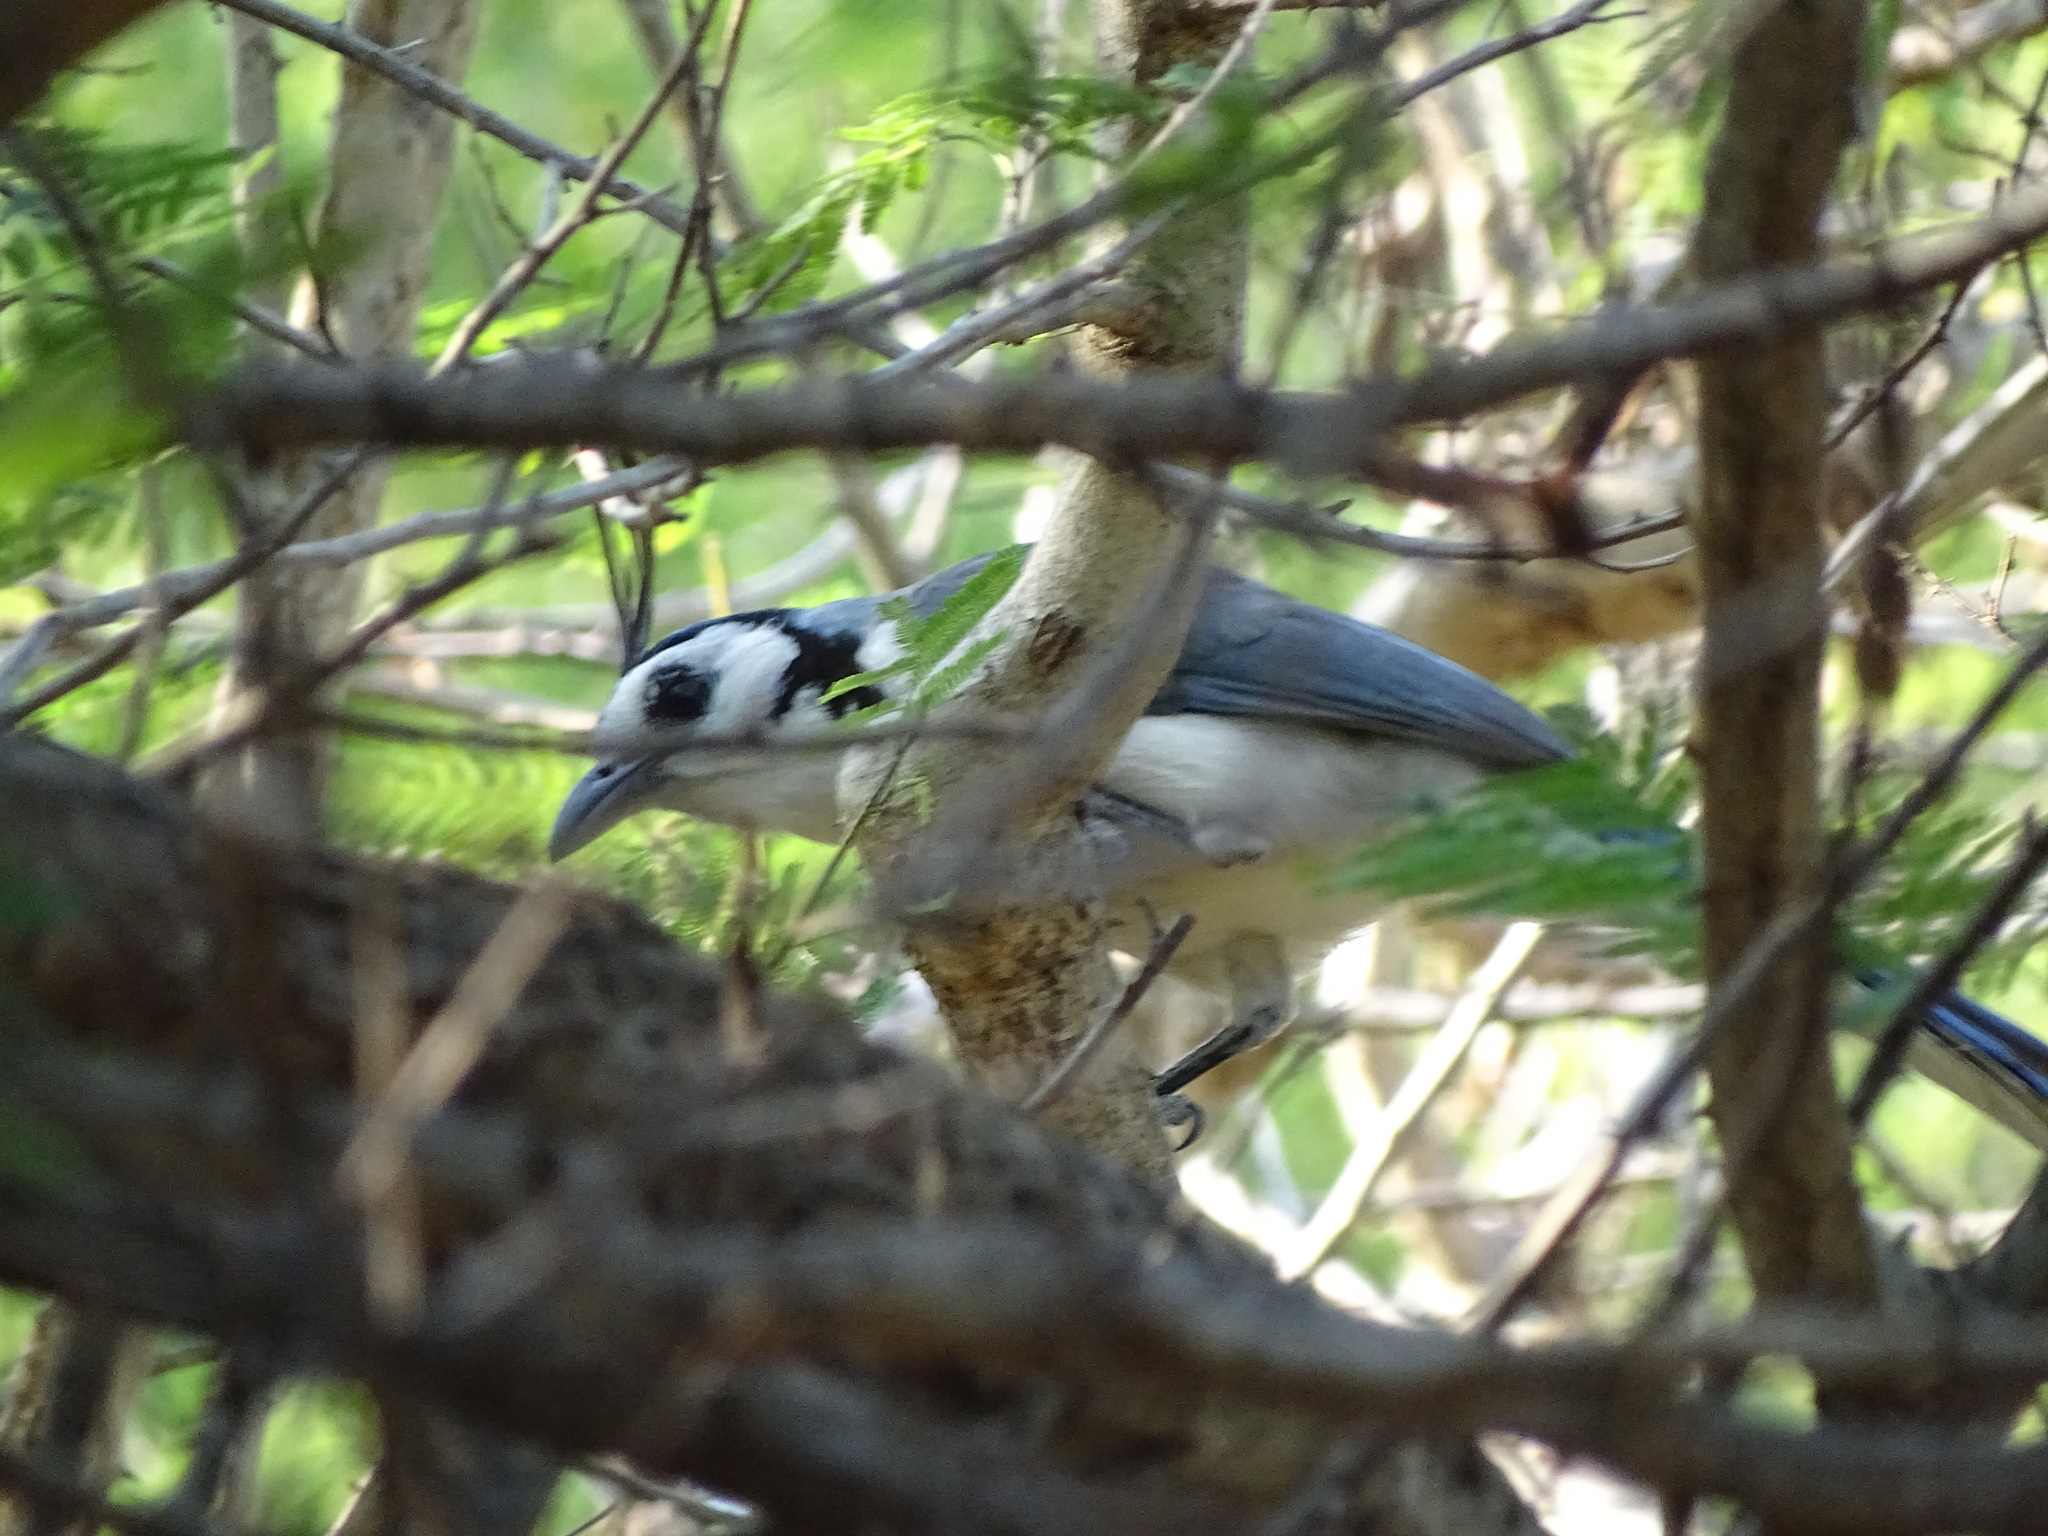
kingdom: Animalia
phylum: Chordata
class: Aves
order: Passeriformes
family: Corvidae
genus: Calocitta
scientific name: Calocitta formosa
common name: White-throated magpie-jay
